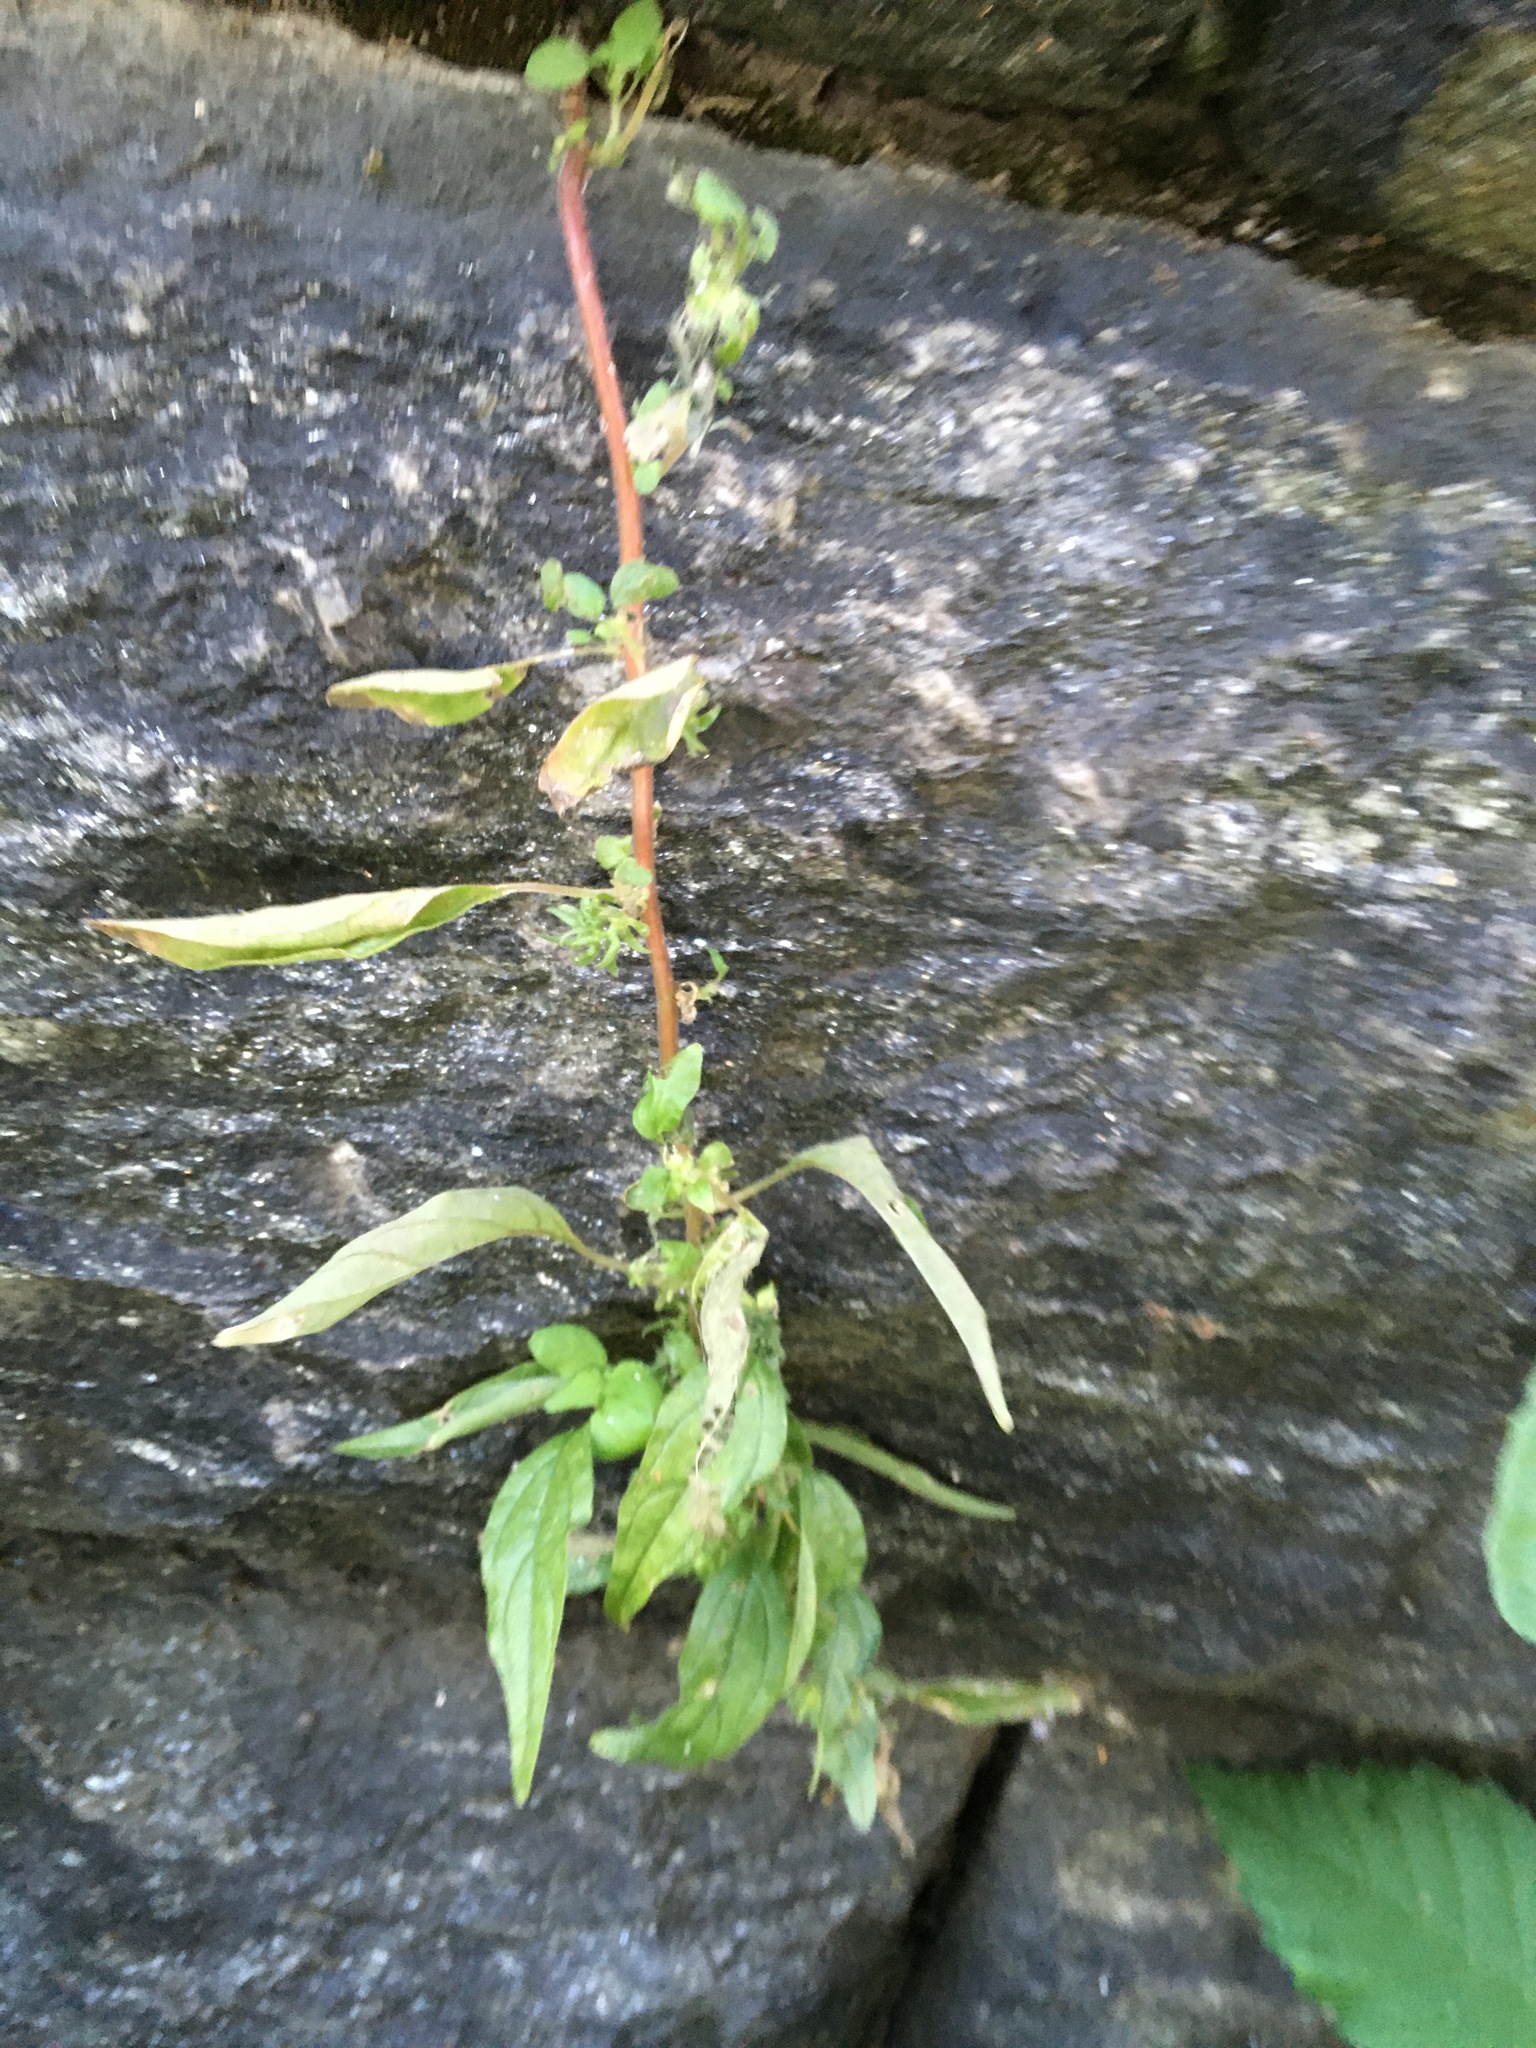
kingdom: Plantae
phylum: Tracheophyta
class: Magnoliopsida
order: Rosales
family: Urticaceae
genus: Parietaria
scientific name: Parietaria pensylvanica
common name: Pennsylvania pellitory
